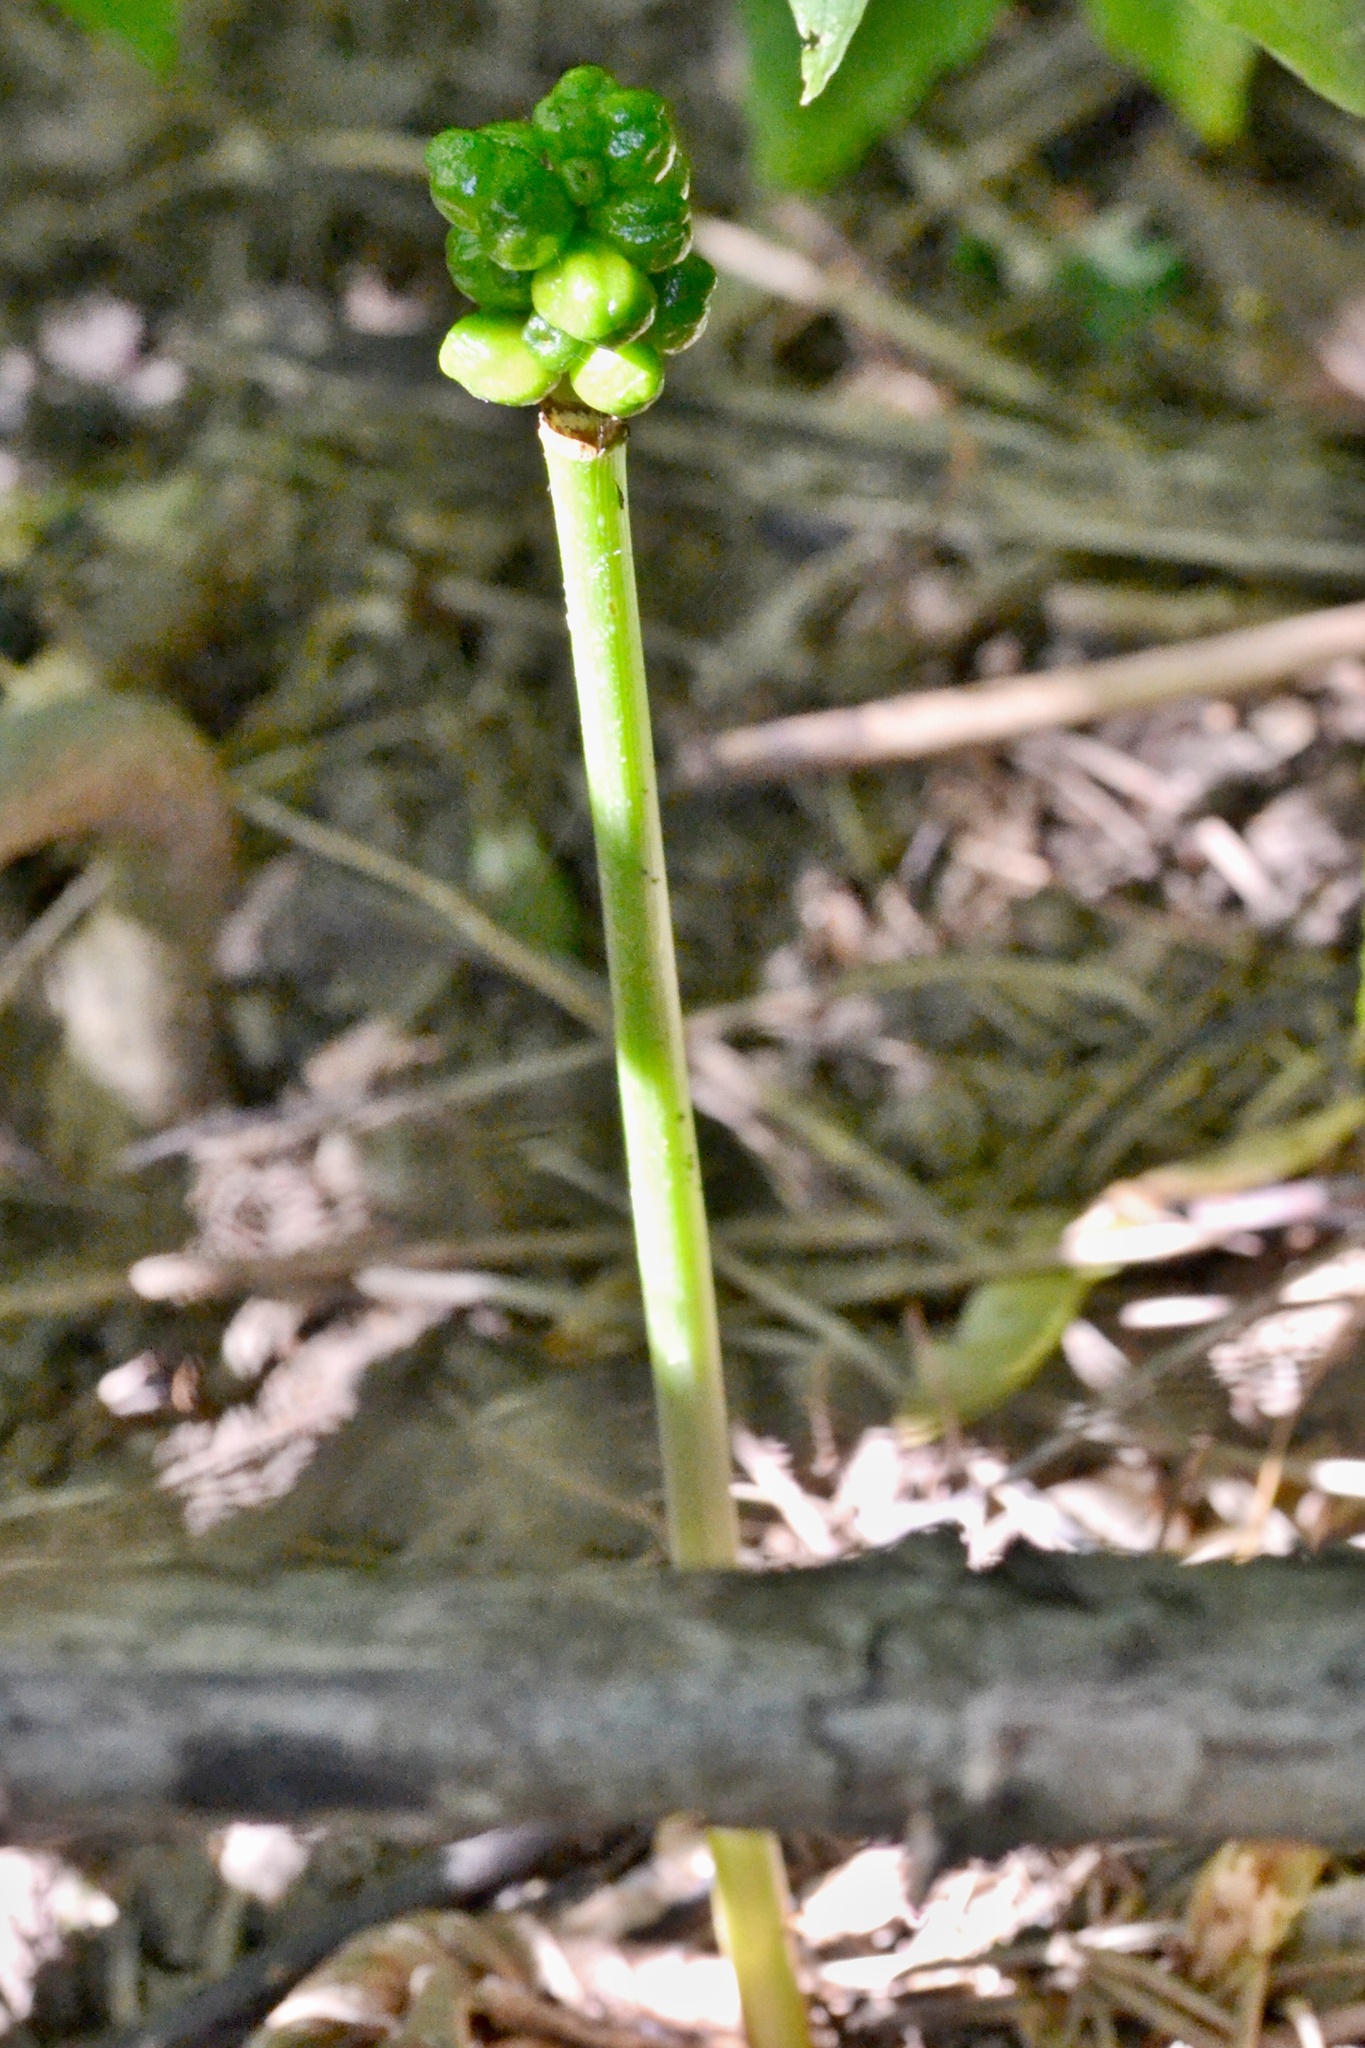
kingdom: Plantae
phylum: Tracheophyta
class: Liliopsida
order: Alismatales
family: Araceae
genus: Arum
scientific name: Arum cylindraceum
